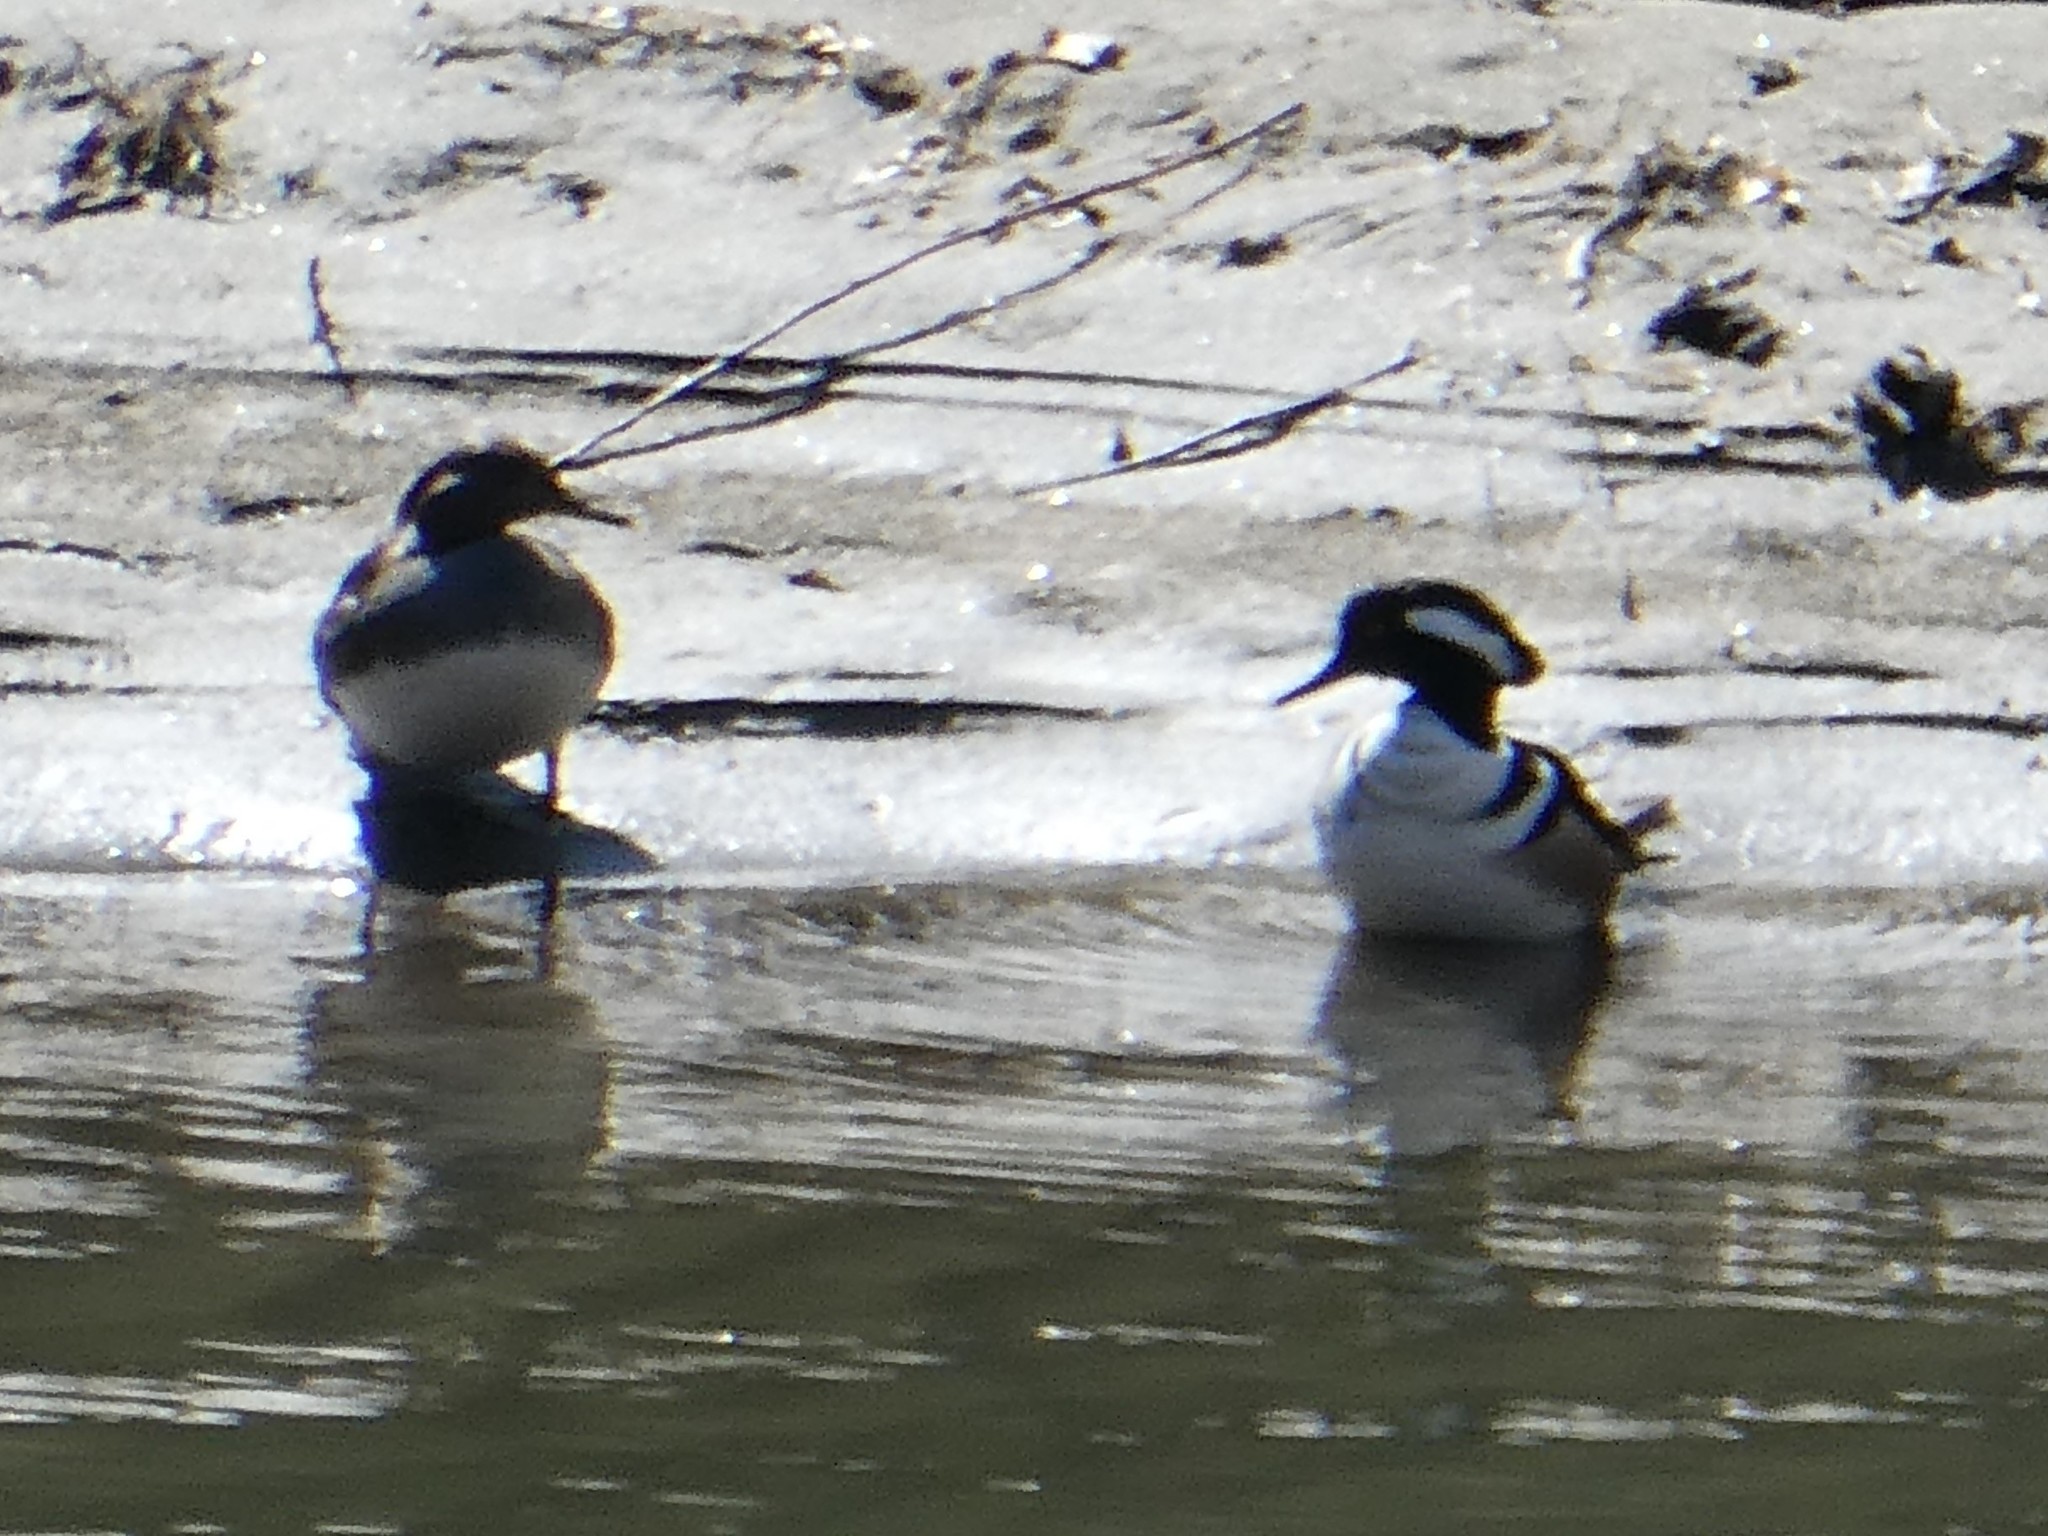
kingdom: Animalia
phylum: Chordata
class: Aves
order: Anseriformes
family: Anatidae
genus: Lophodytes
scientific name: Lophodytes cucullatus
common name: Hooded merganser
